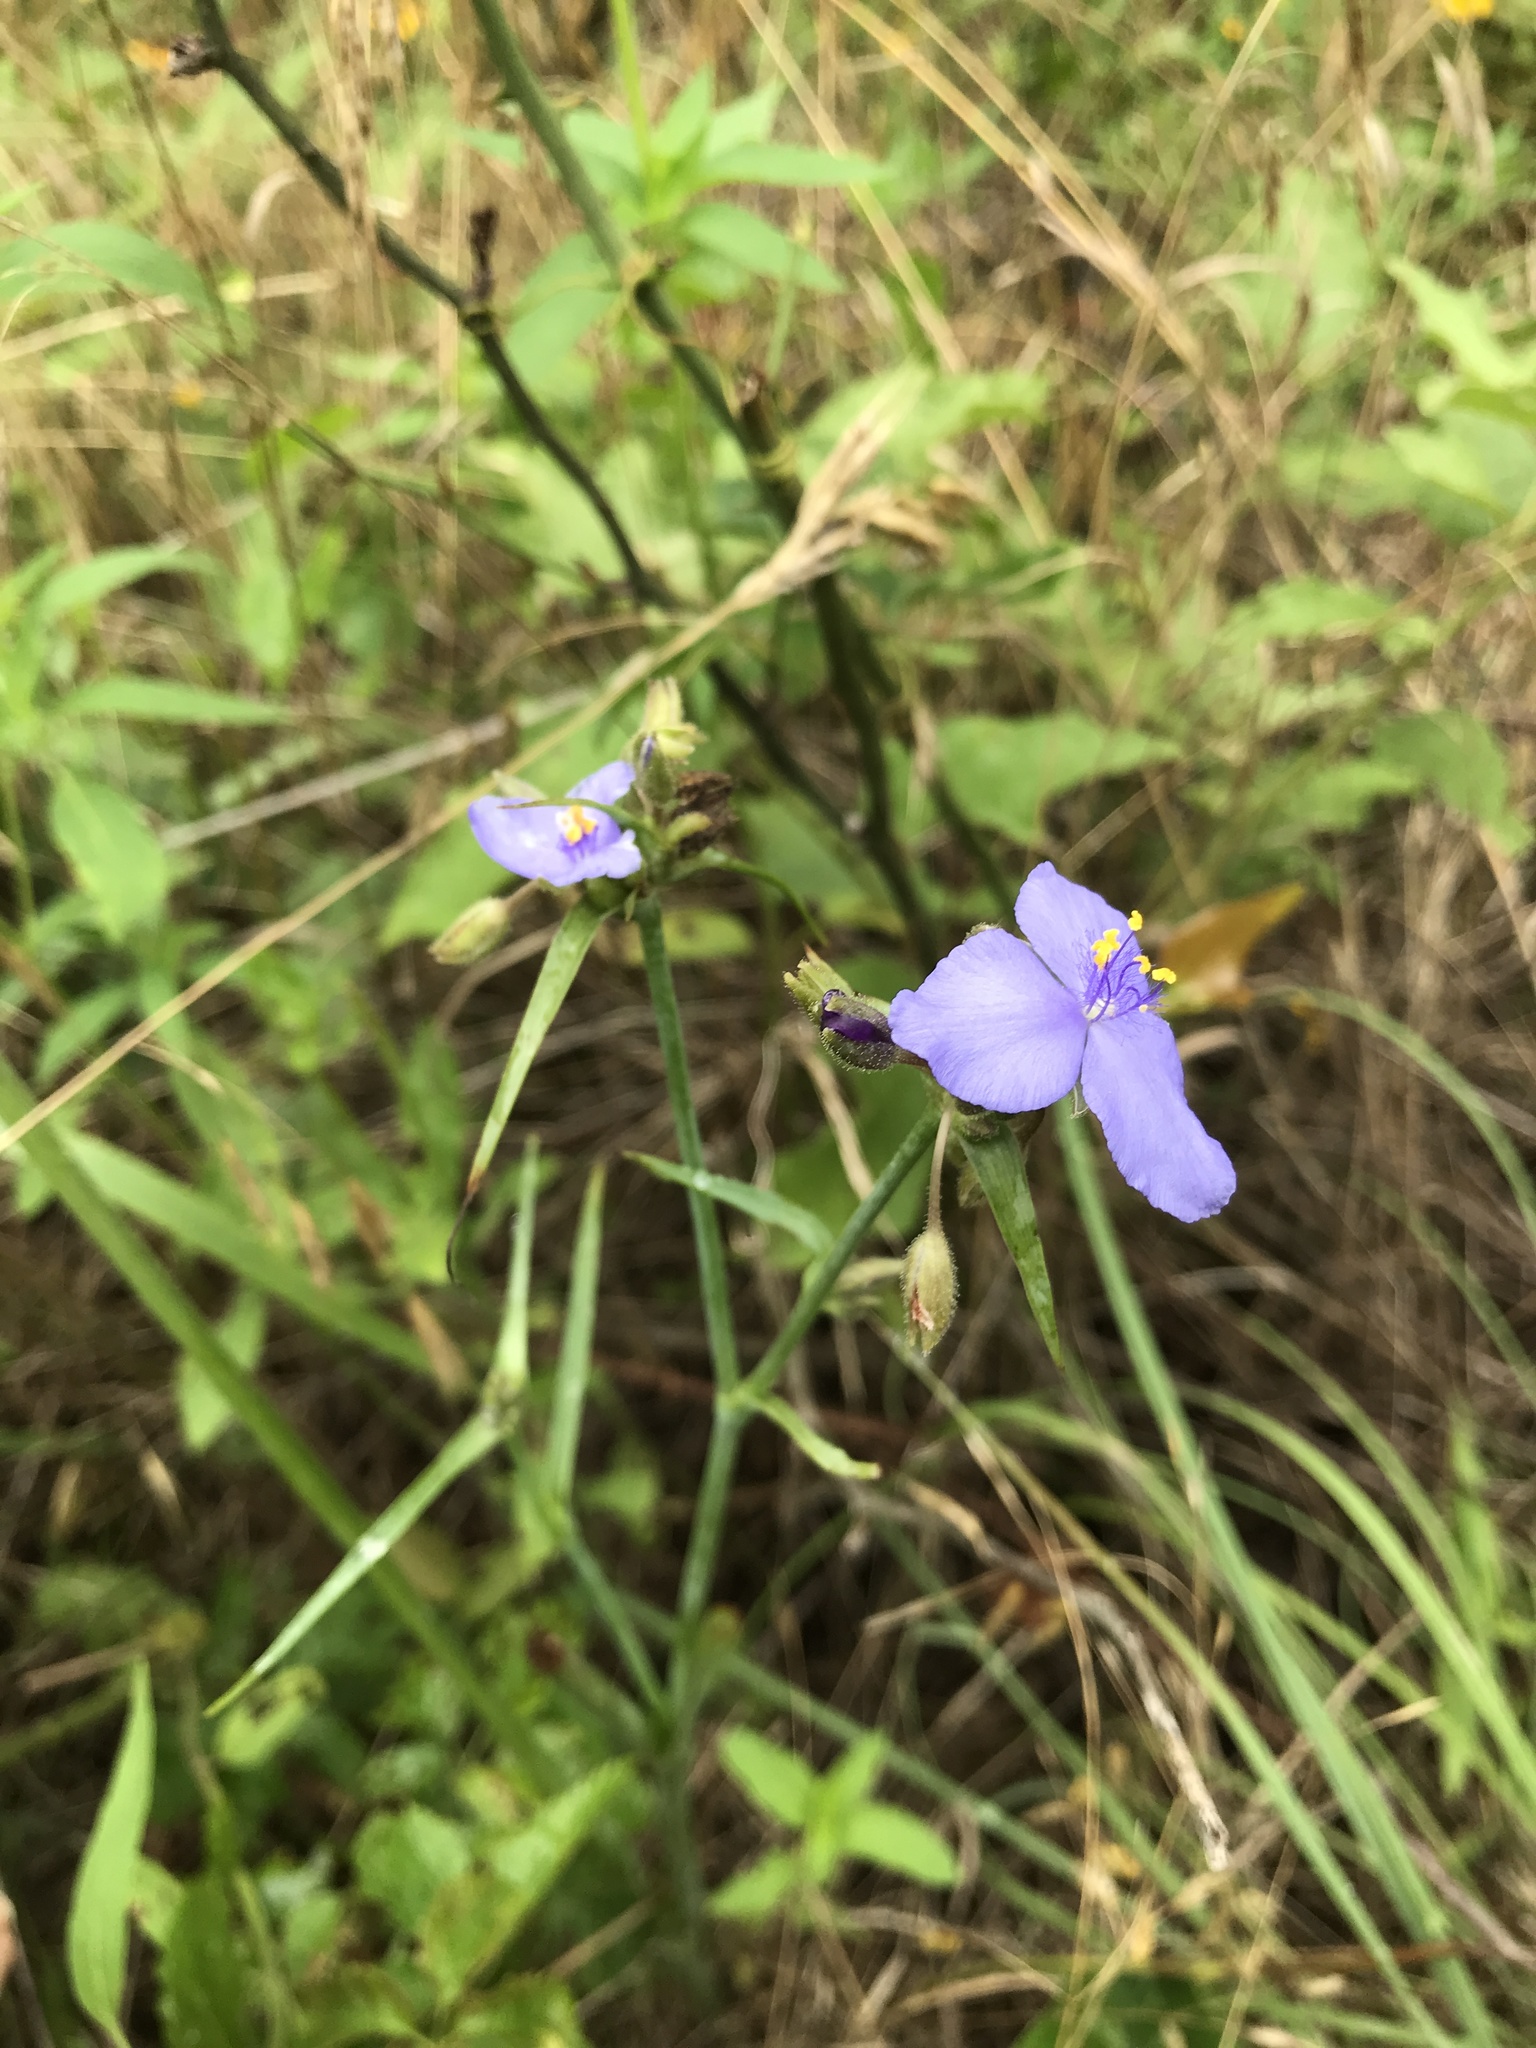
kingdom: Plantae
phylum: Tracheophyta
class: Liliopsida
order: Commelinales
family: Commelinaceae
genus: Tradescantia
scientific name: Tradescantia hirsutiflora
